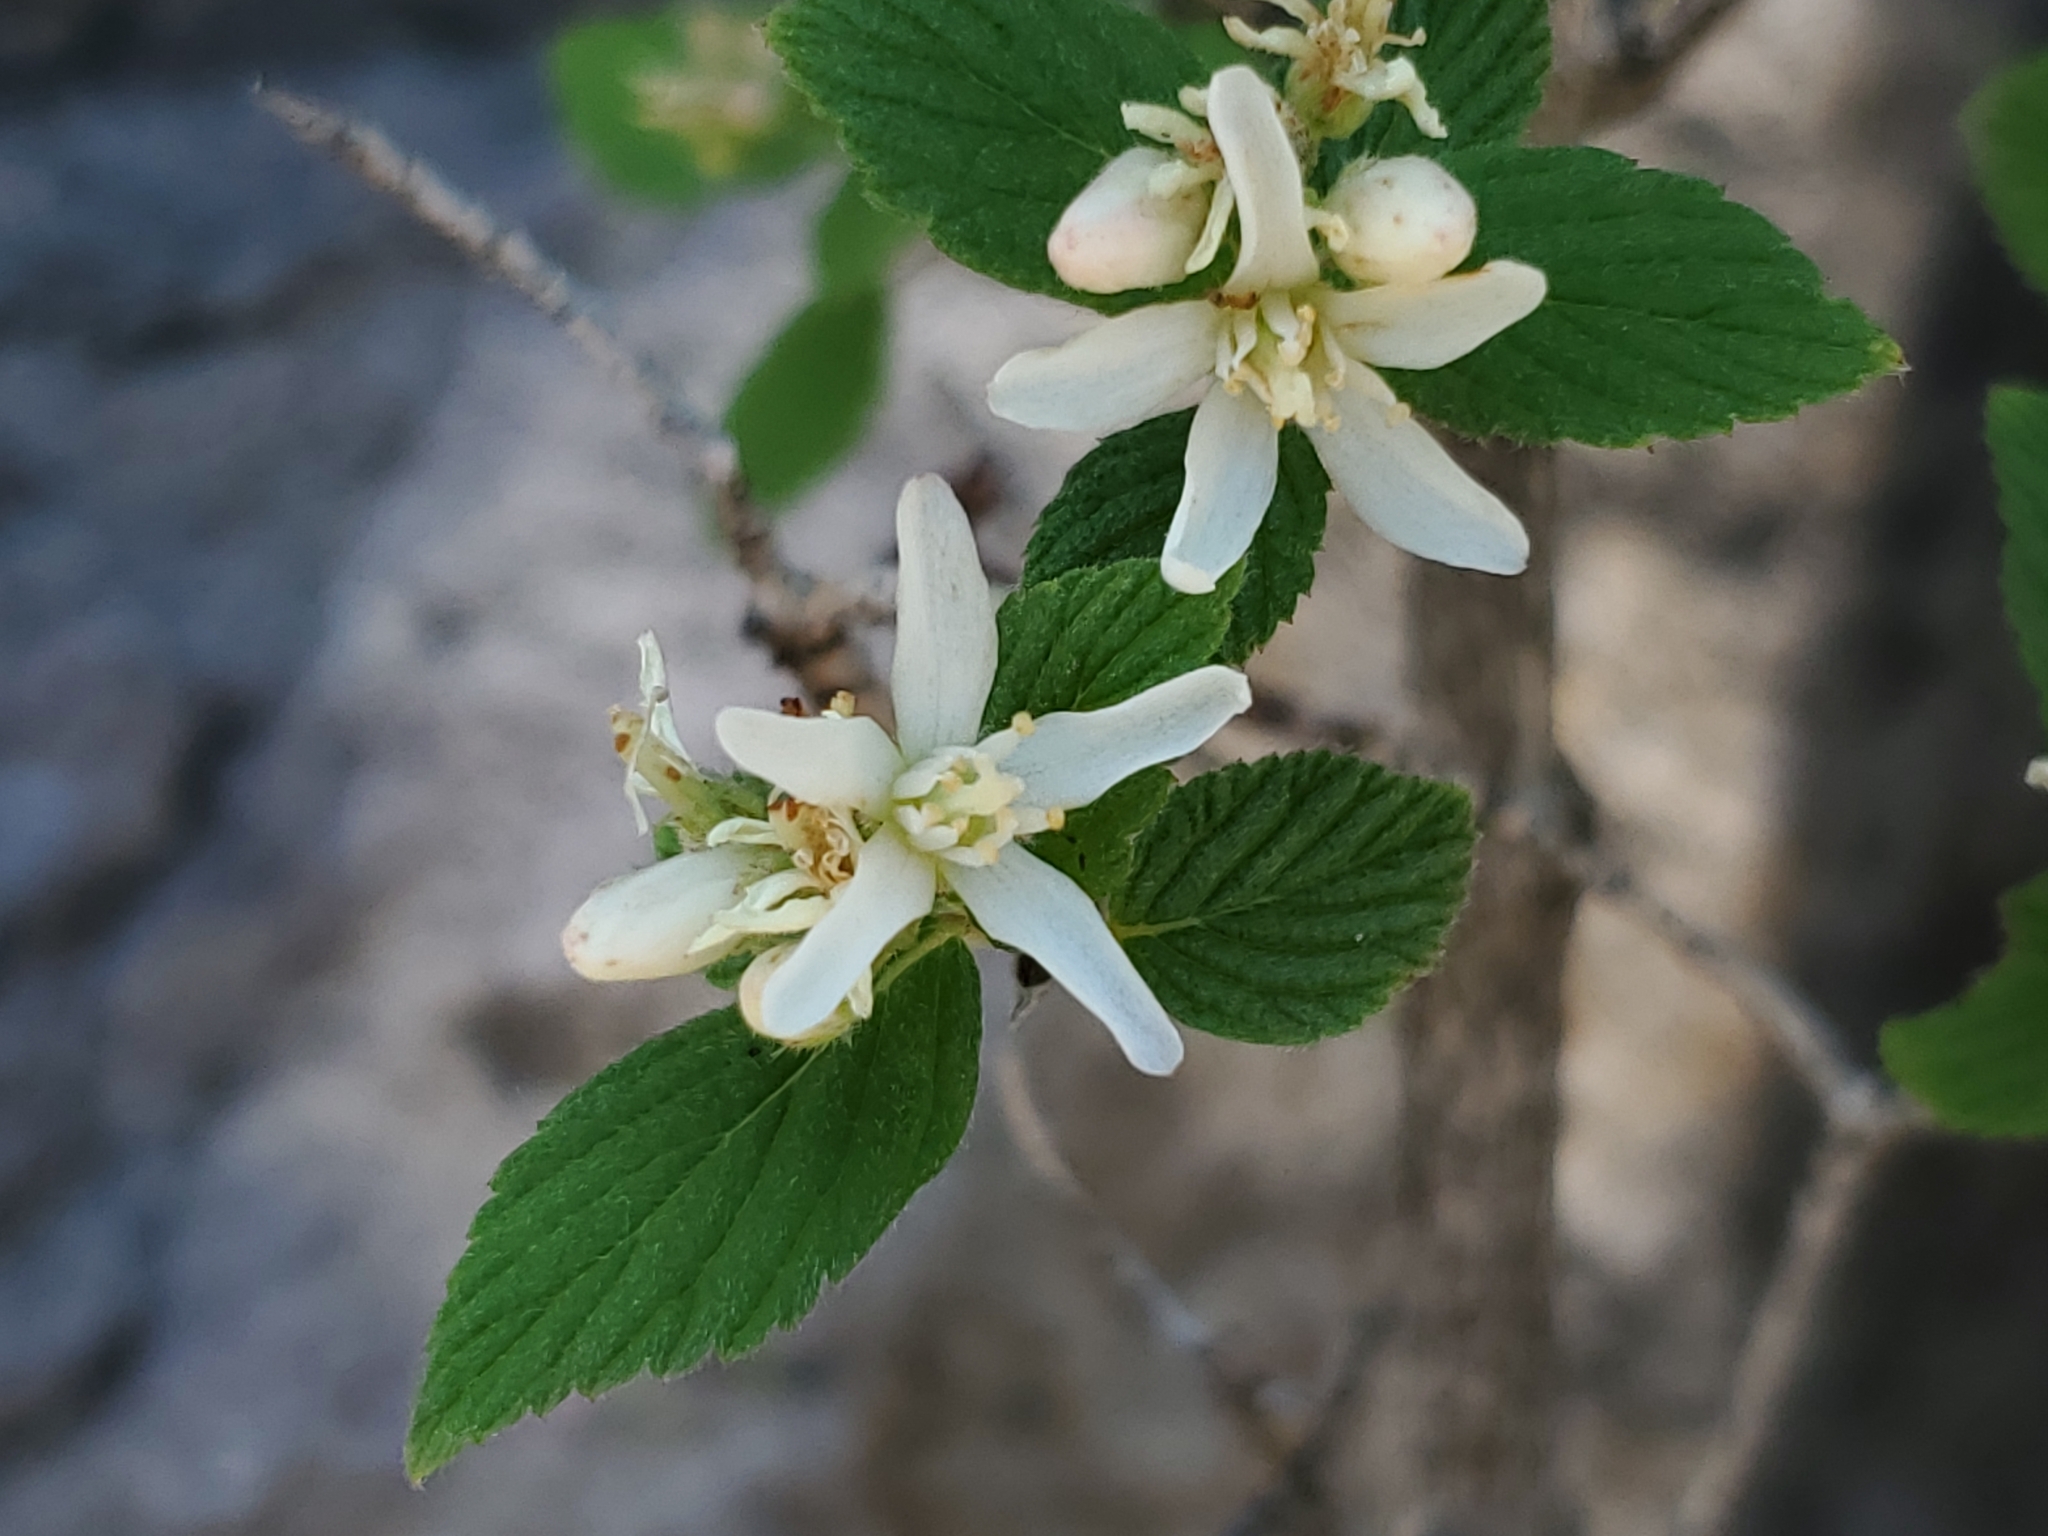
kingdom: Plantae
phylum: Tracheophyta
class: Magnoliopsida
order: Cornales
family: Hydrangeaceae
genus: Jamesia
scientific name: Jamesia americana
